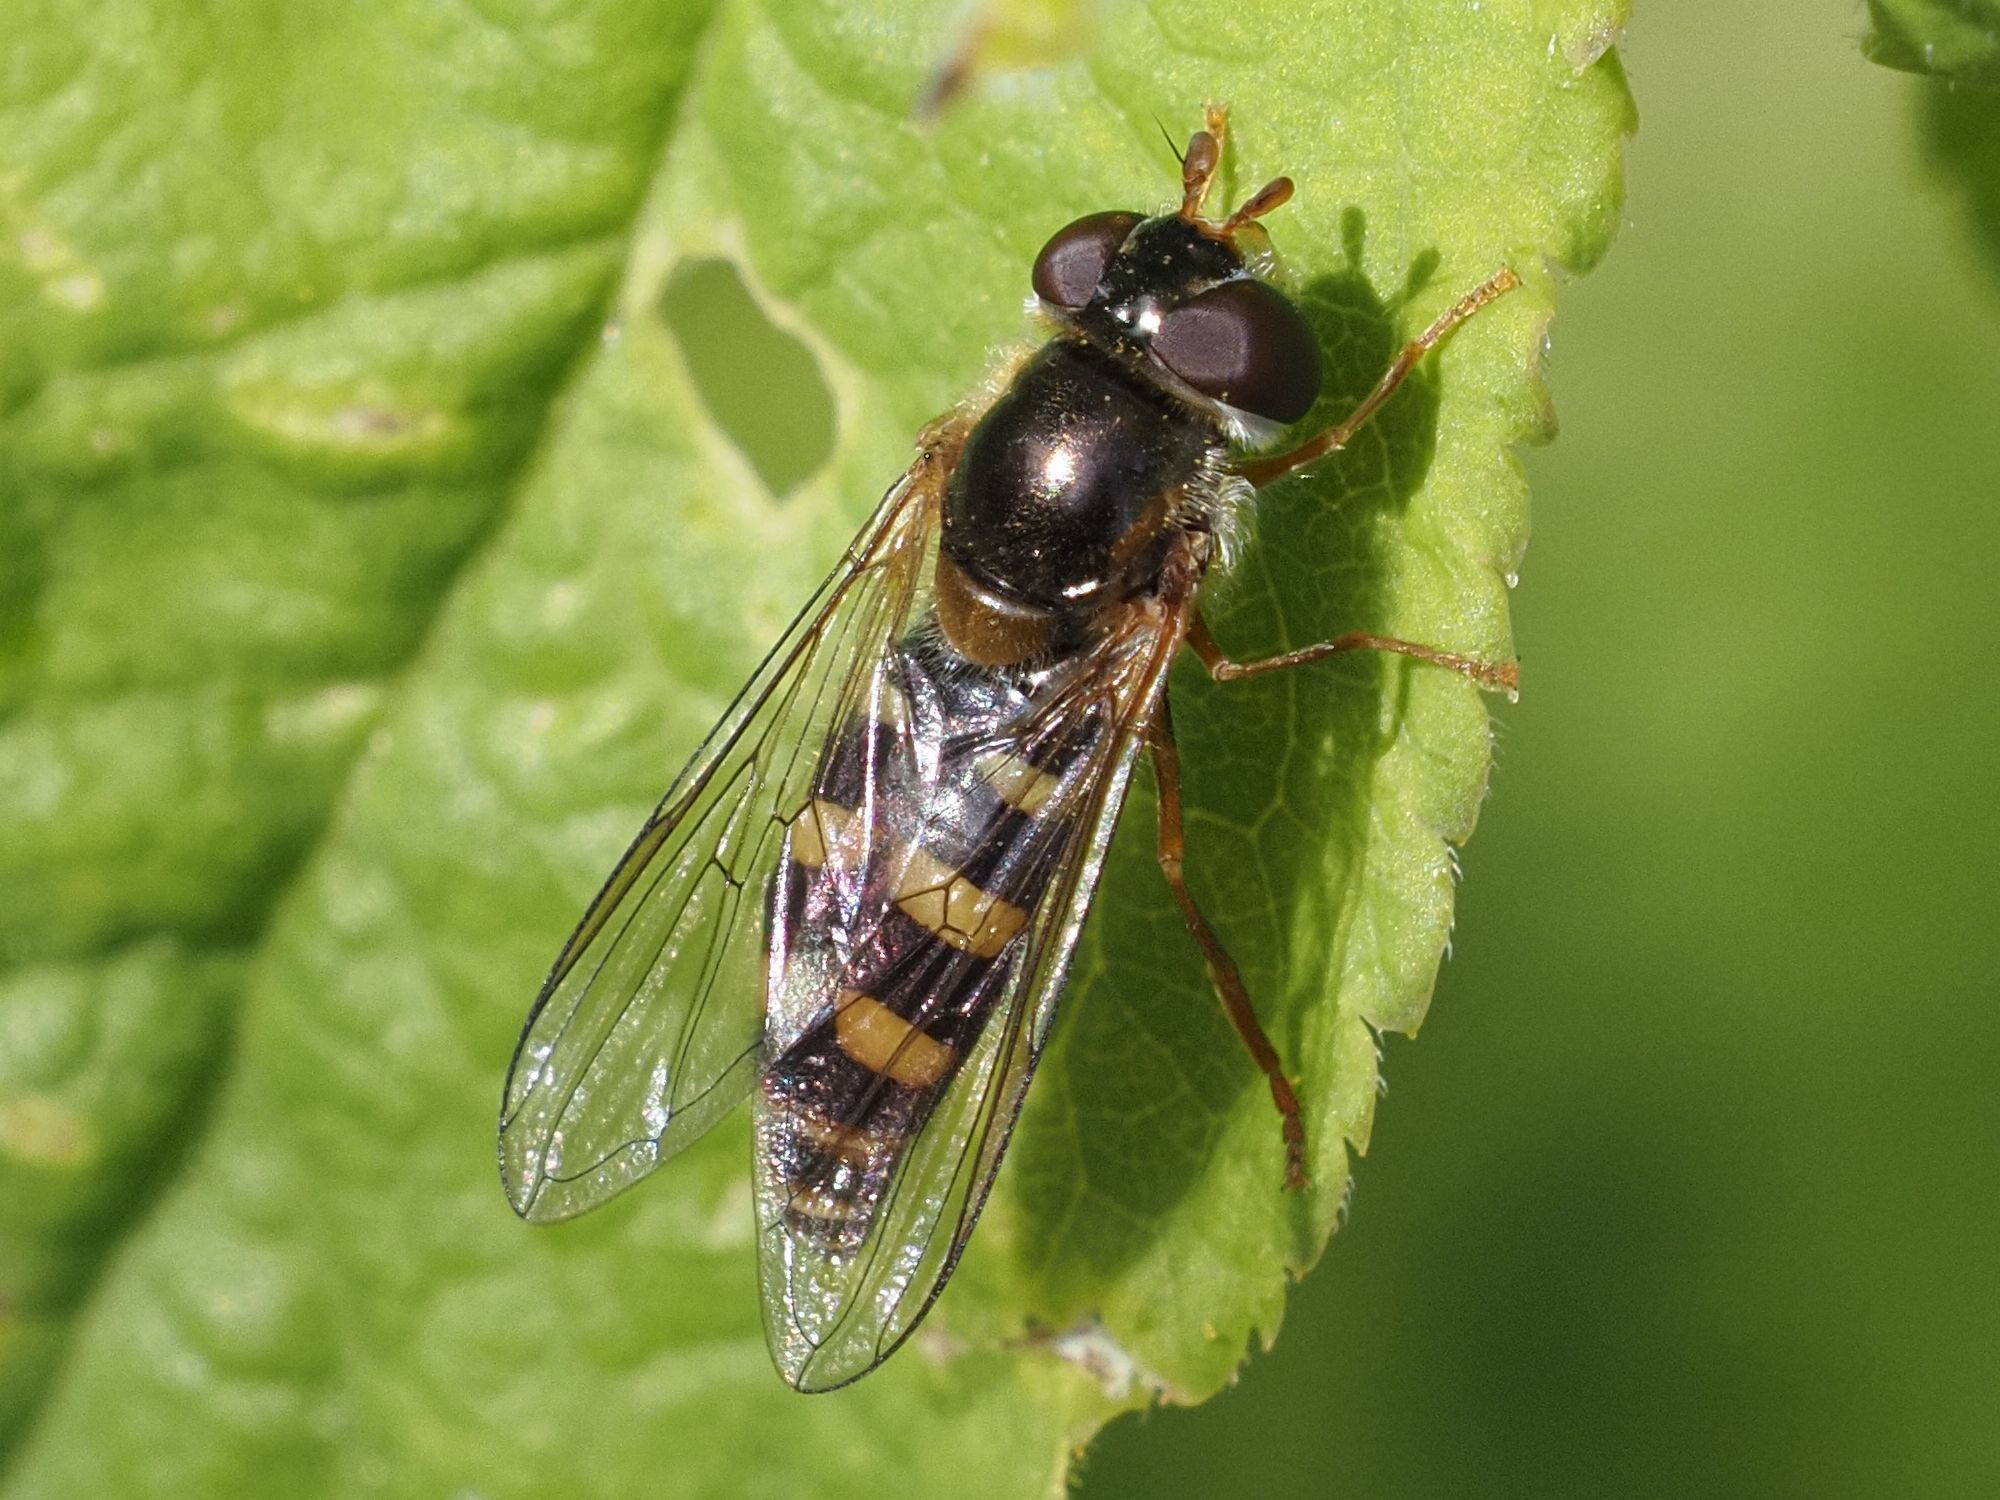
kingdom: Animalia
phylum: Arthropoda
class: Insecta
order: Diptera
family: Syrphidae
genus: Epistrophella
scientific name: Epistrophella euchromus
